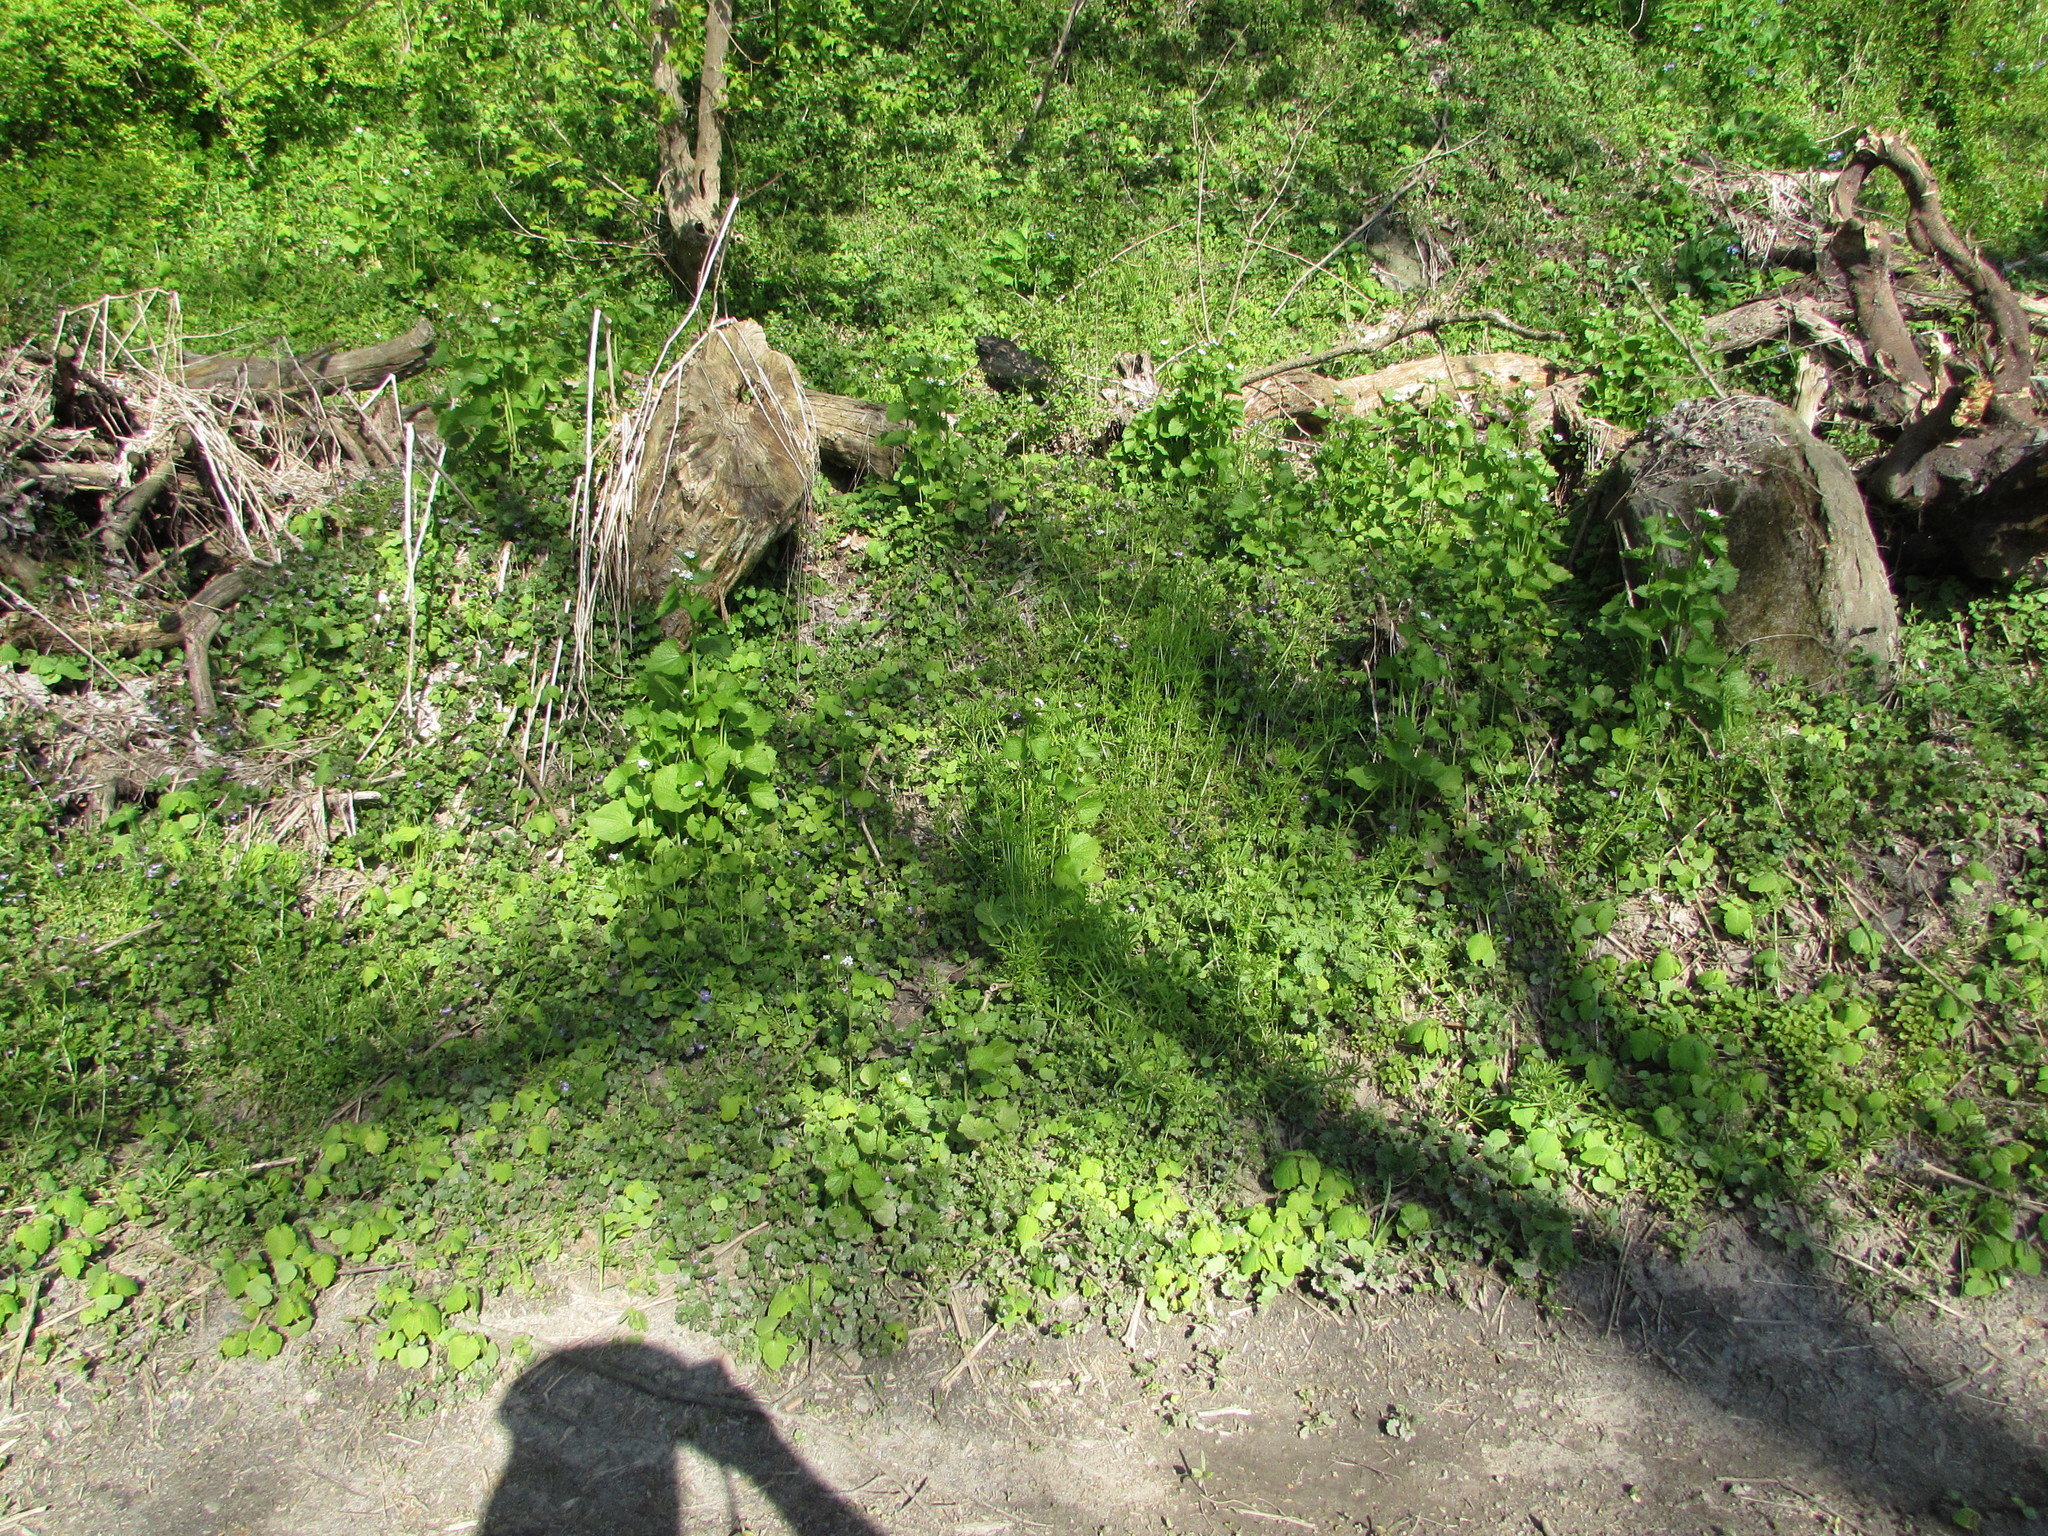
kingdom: Plantae
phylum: Tracheophyta
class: Magnoliopsida
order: Brassicales
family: Brassicaceae
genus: Alliaria
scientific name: Alliaria petiolata
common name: Garlic mustard
